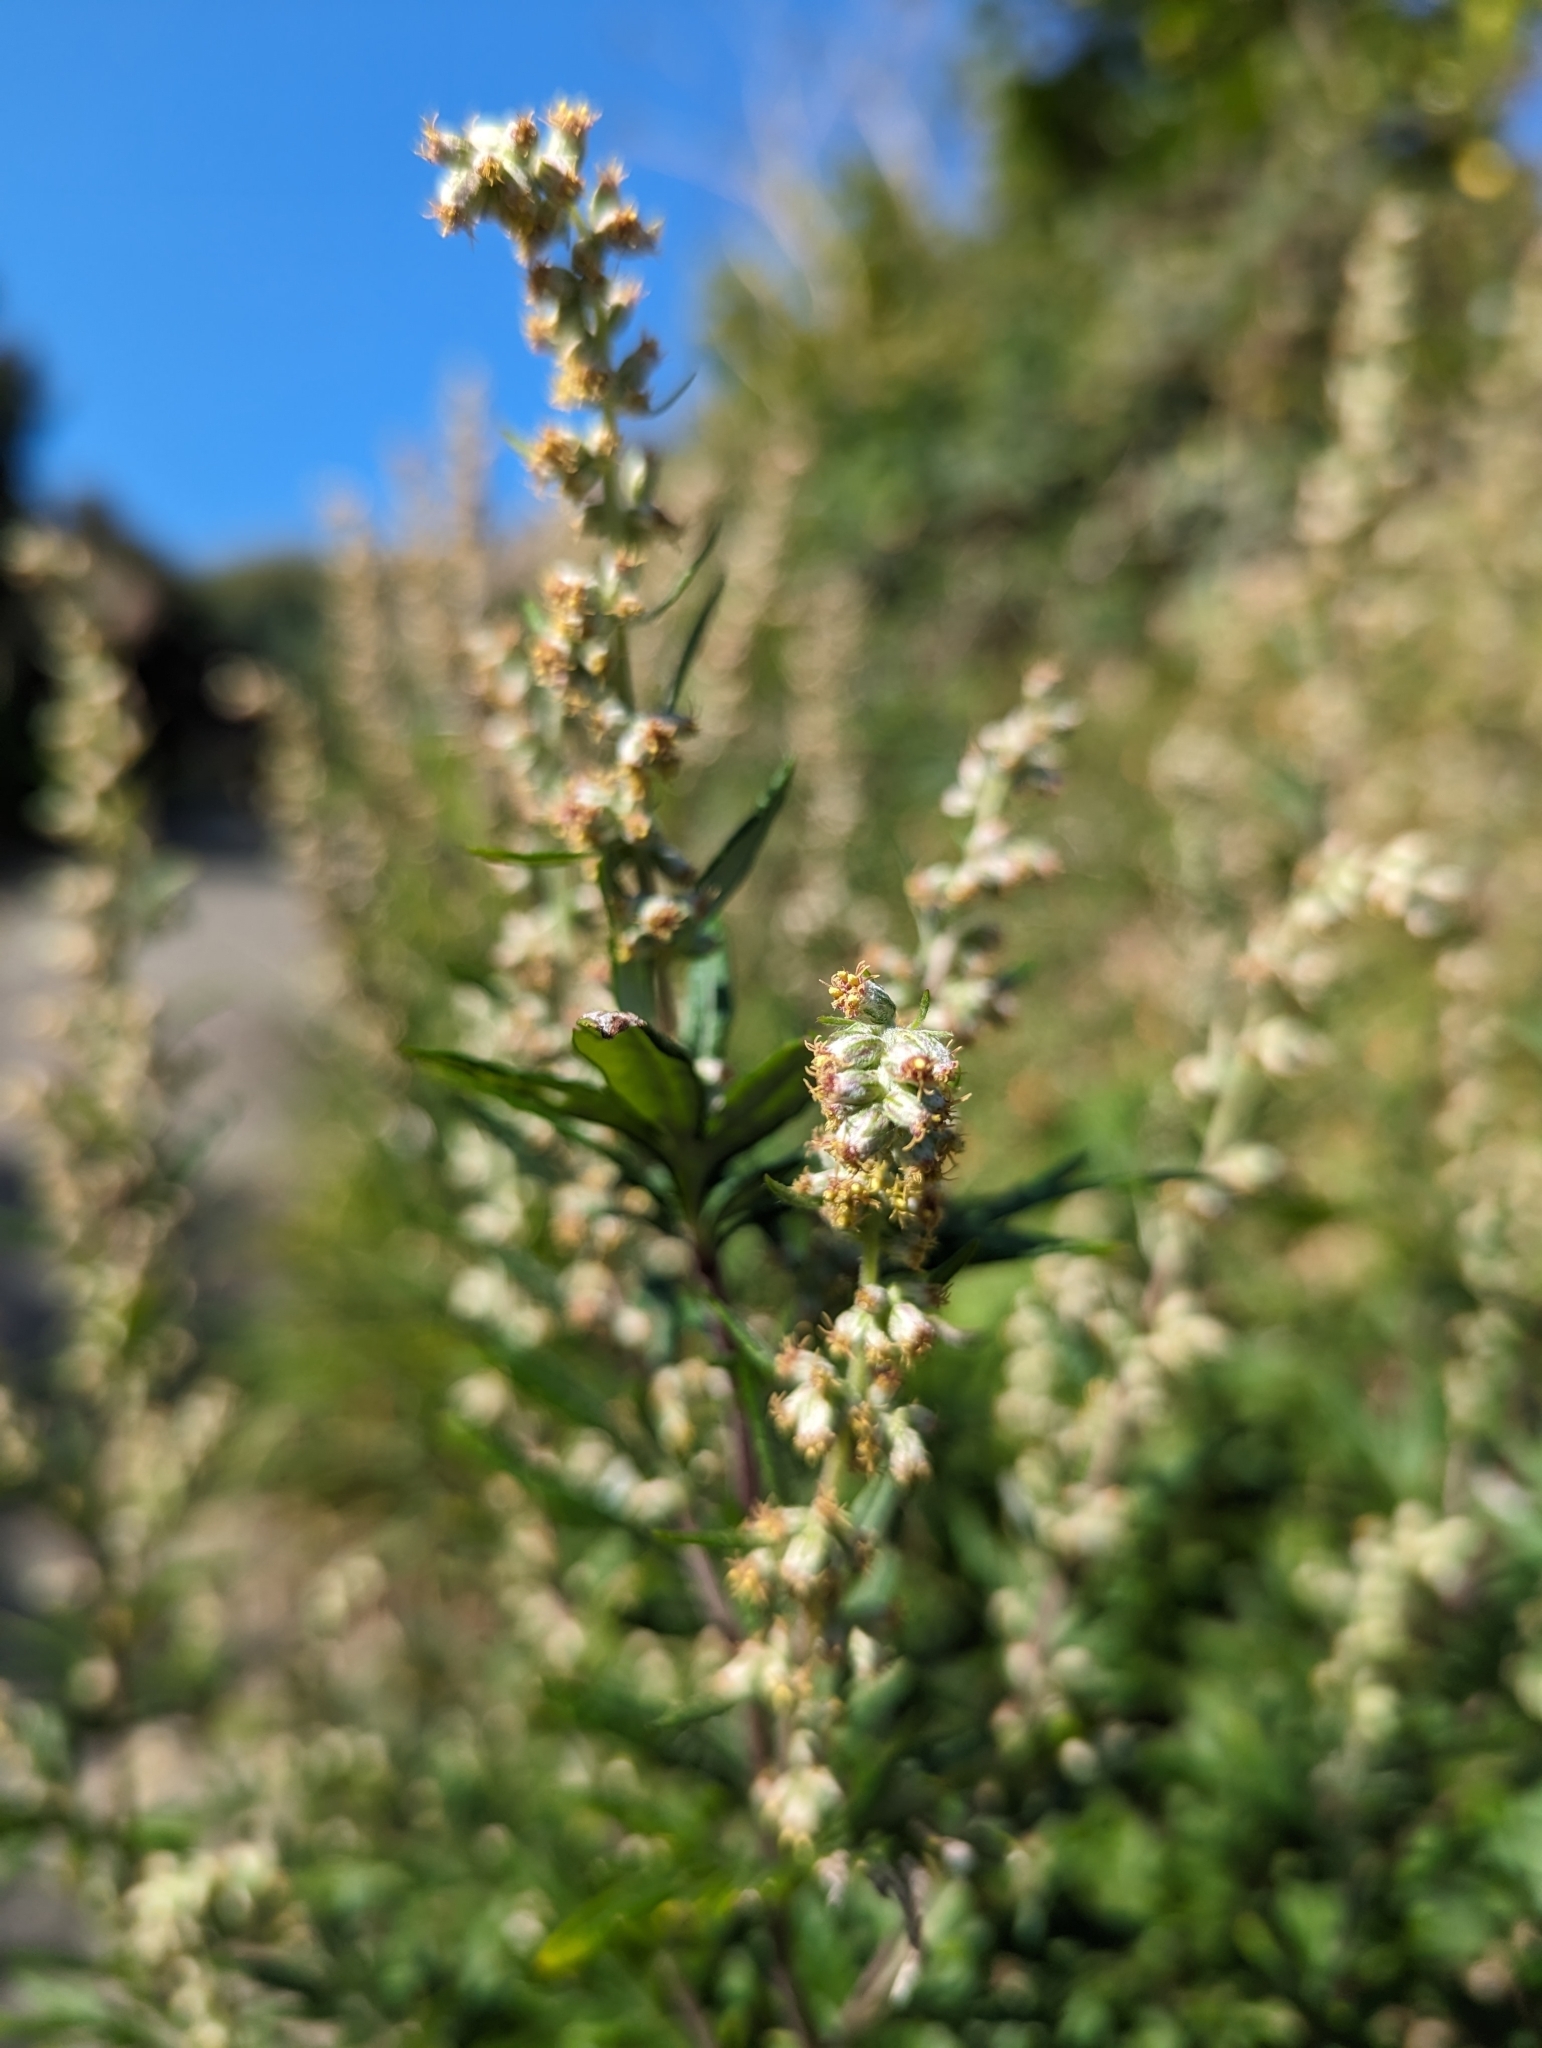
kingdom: Plantae
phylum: Tracheophyta
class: Magnoliopsida
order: Asterales
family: Asteraceae
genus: Artemisia
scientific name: Artemisia vulgaris
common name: Mugwort
